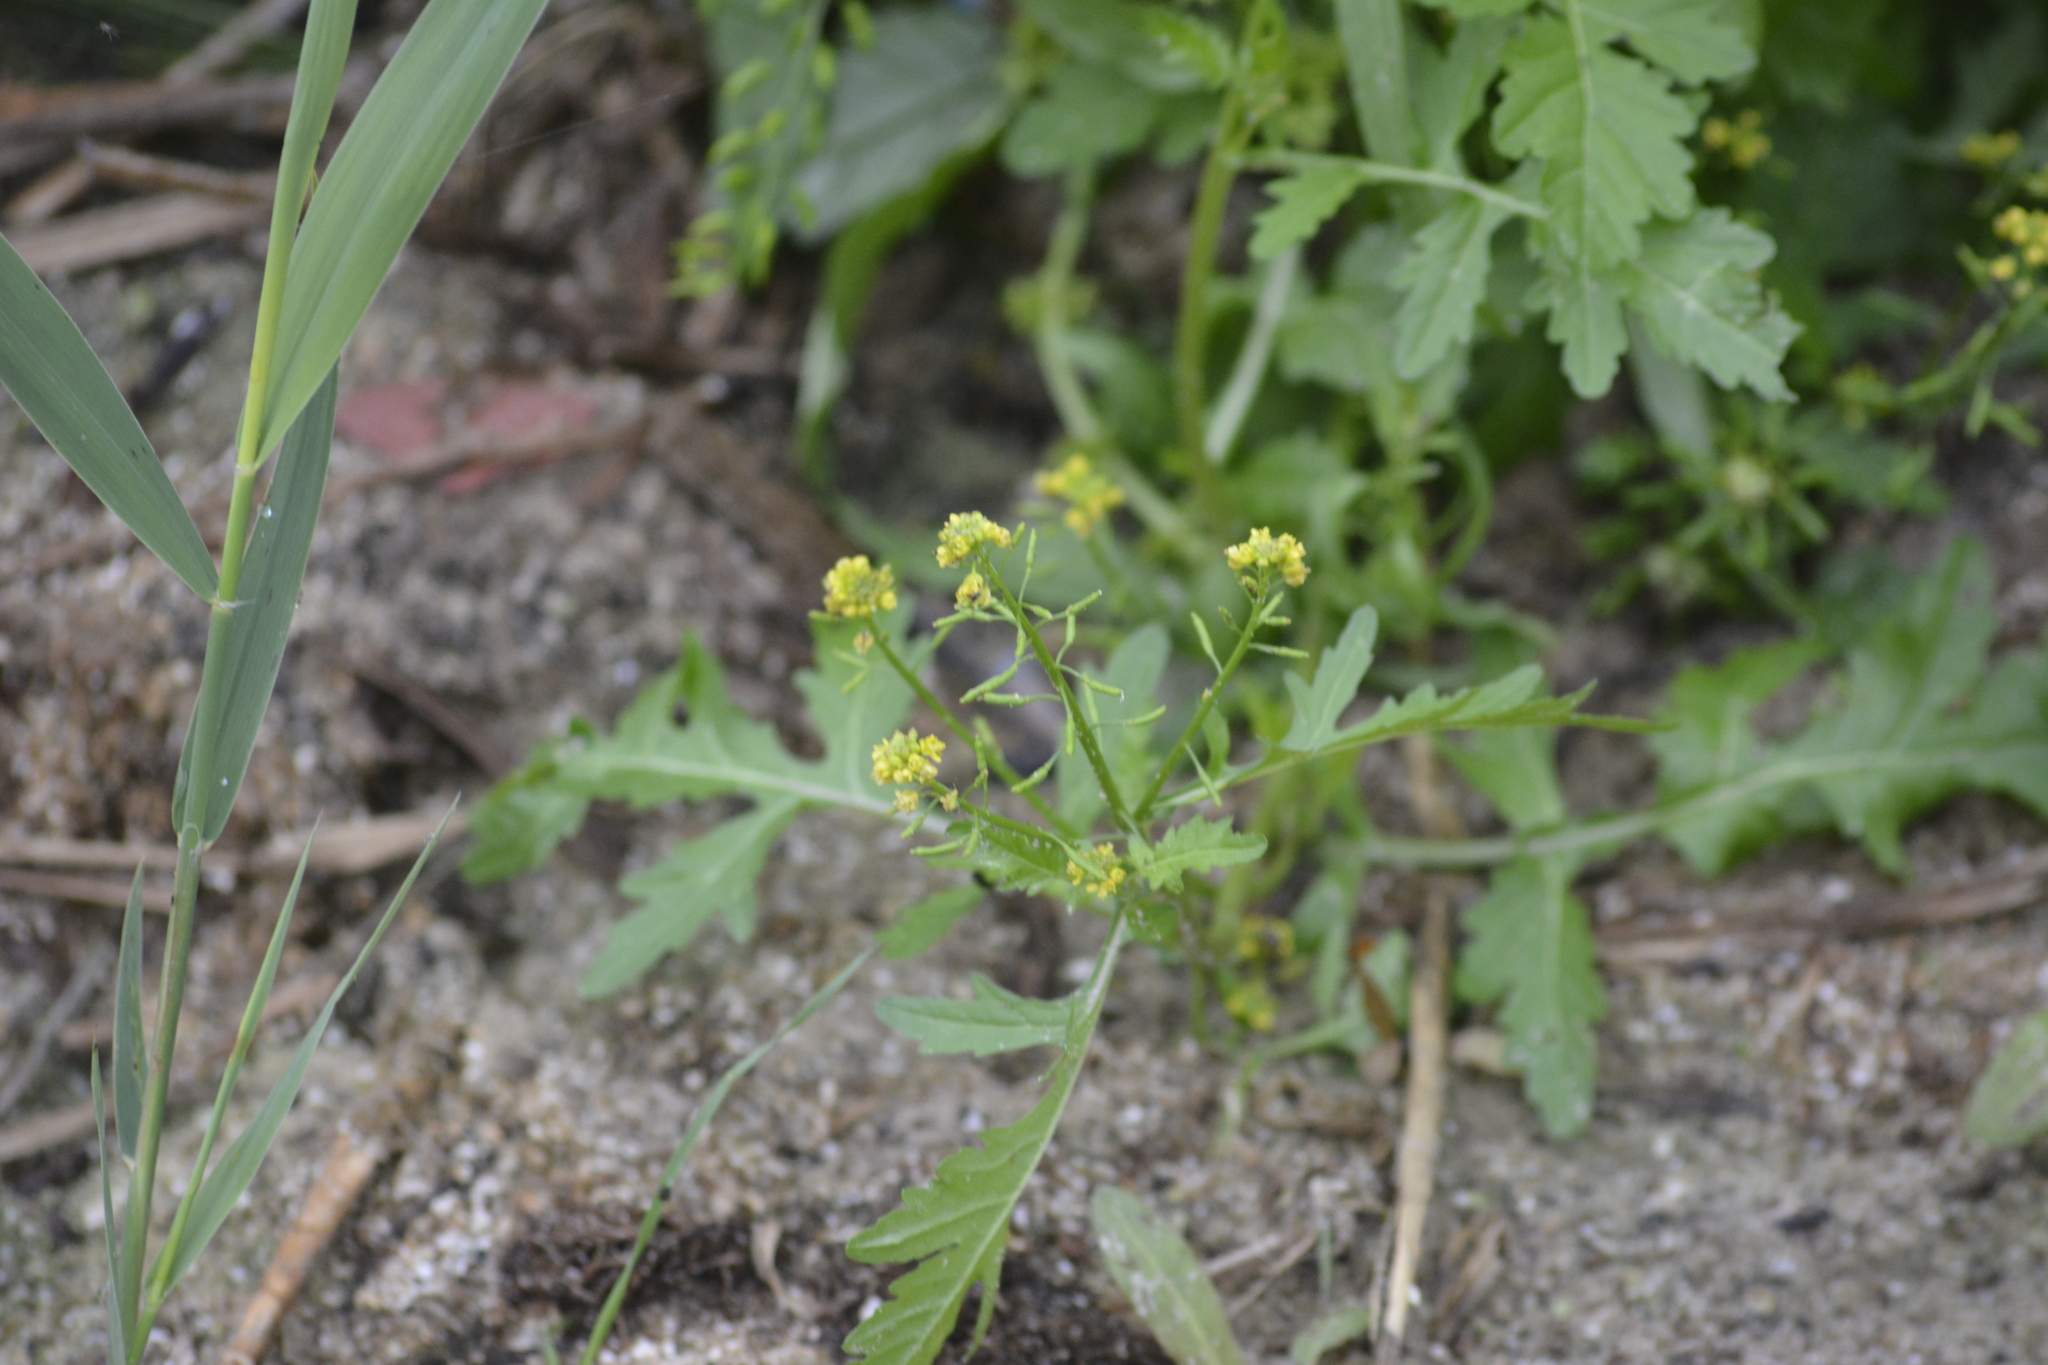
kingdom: Plantae
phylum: Tracheophyta
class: Magnoliopsida
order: Brassicales
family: Brassicaceae
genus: Rorippa
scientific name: Rorippa palustris
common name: Marsh yellow-cress
